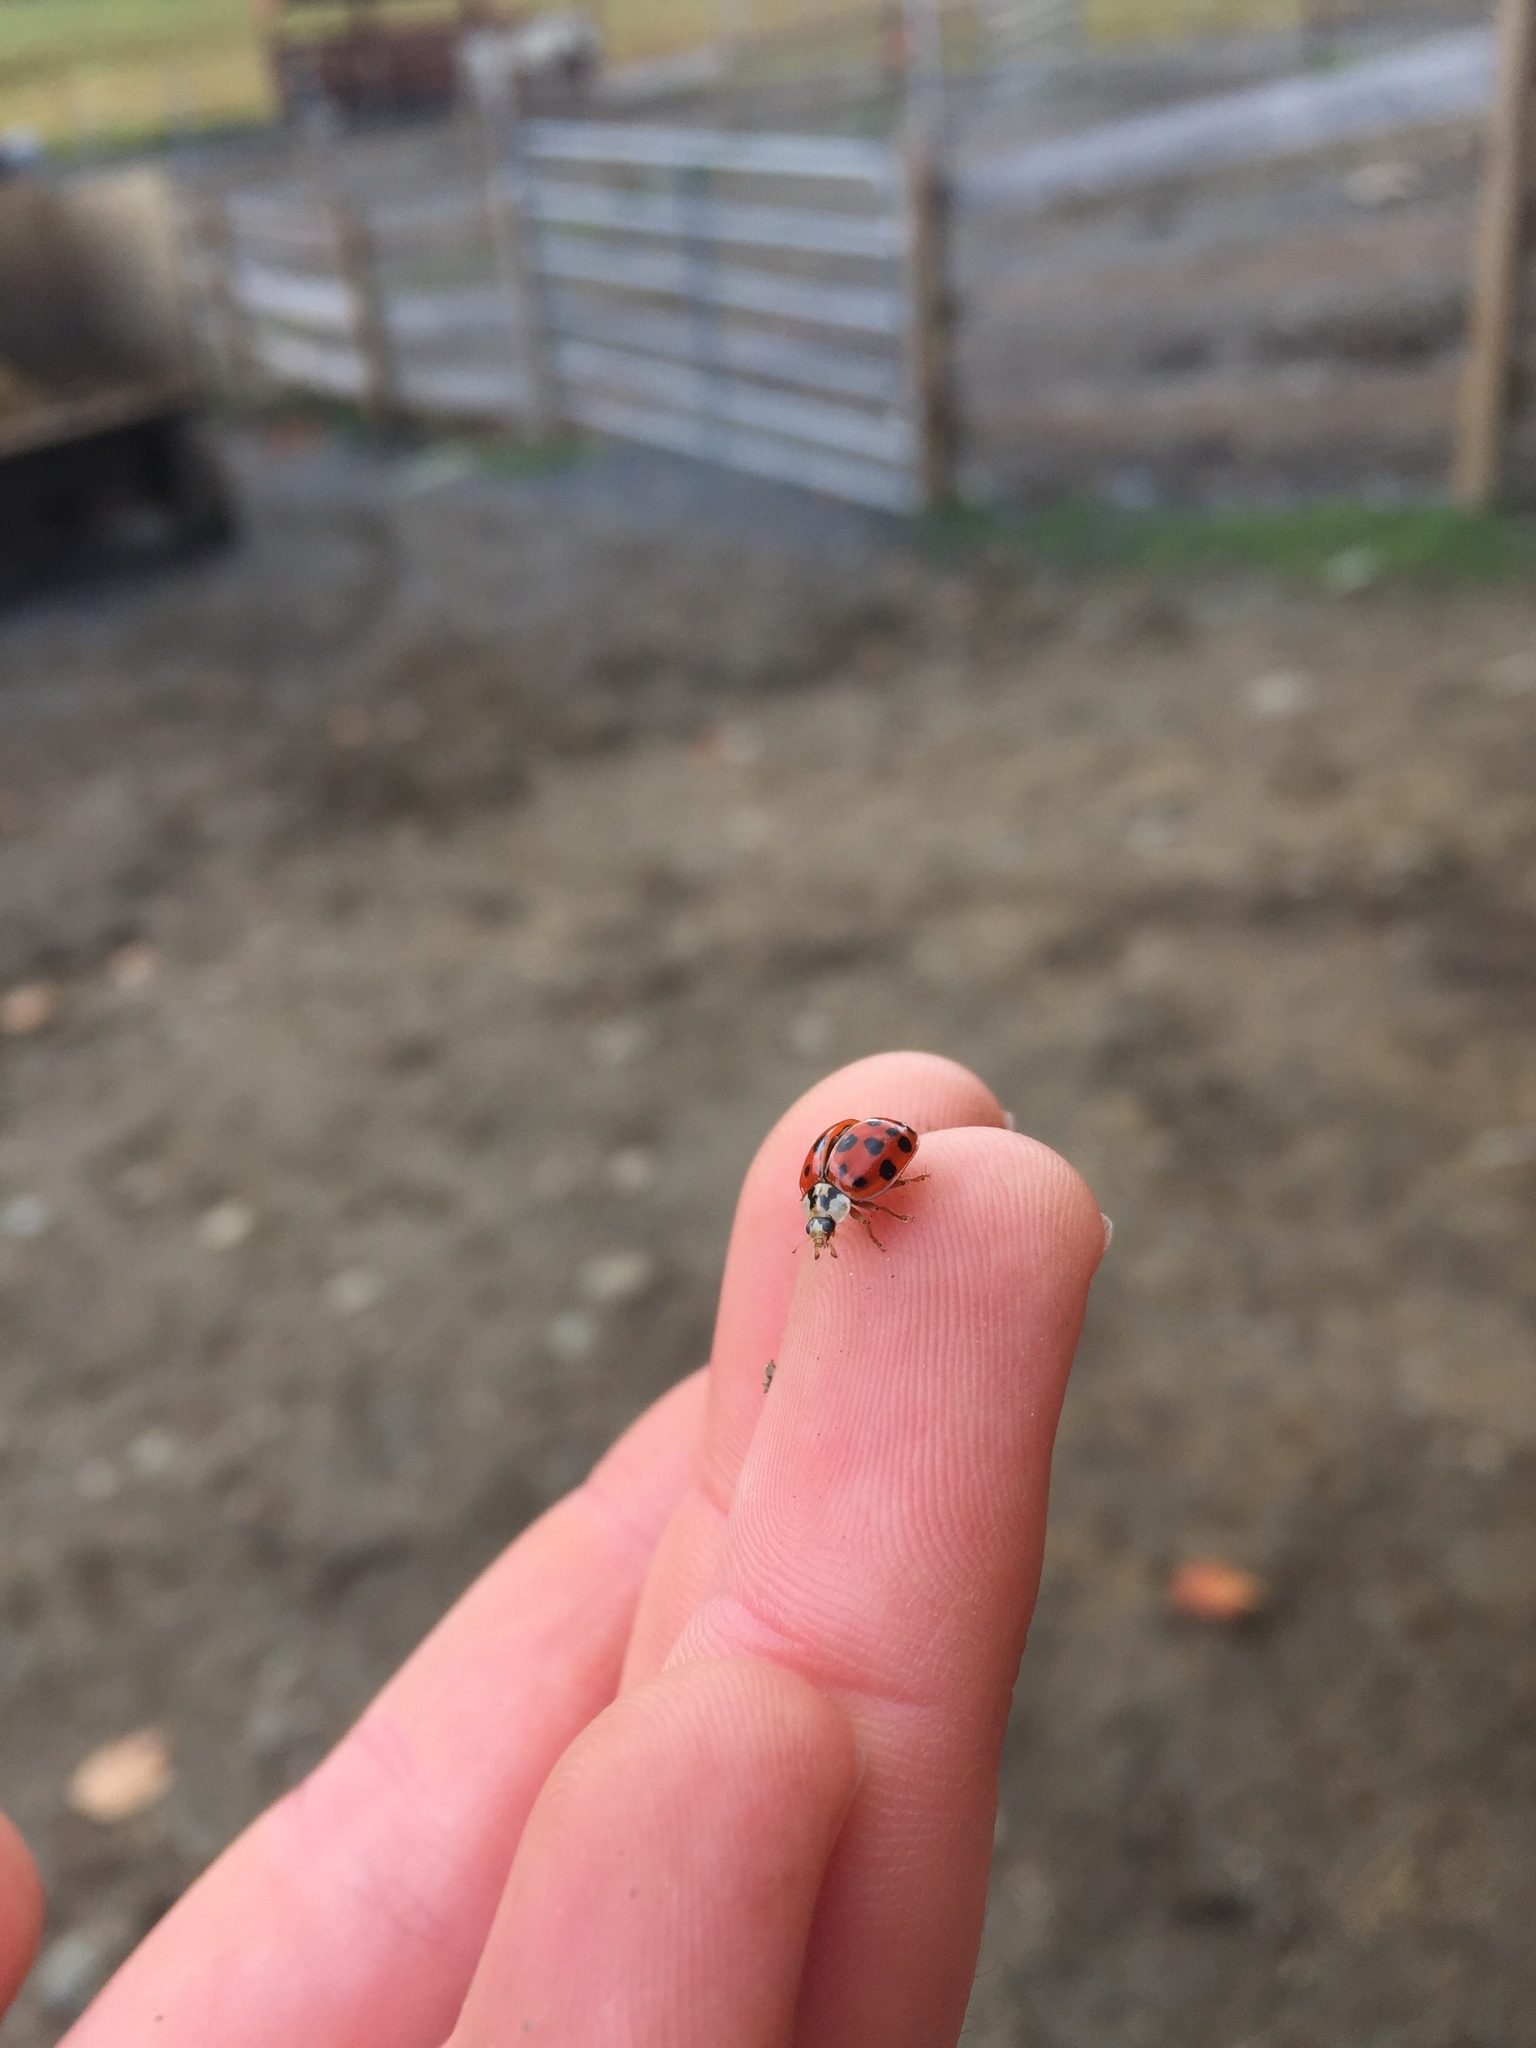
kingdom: Animalia
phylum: Arthropoda
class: Insecta
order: Coleoptera
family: Coccinellidae
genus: Harmonia
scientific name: Harmonia axyridis
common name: Harlequin ladybird
